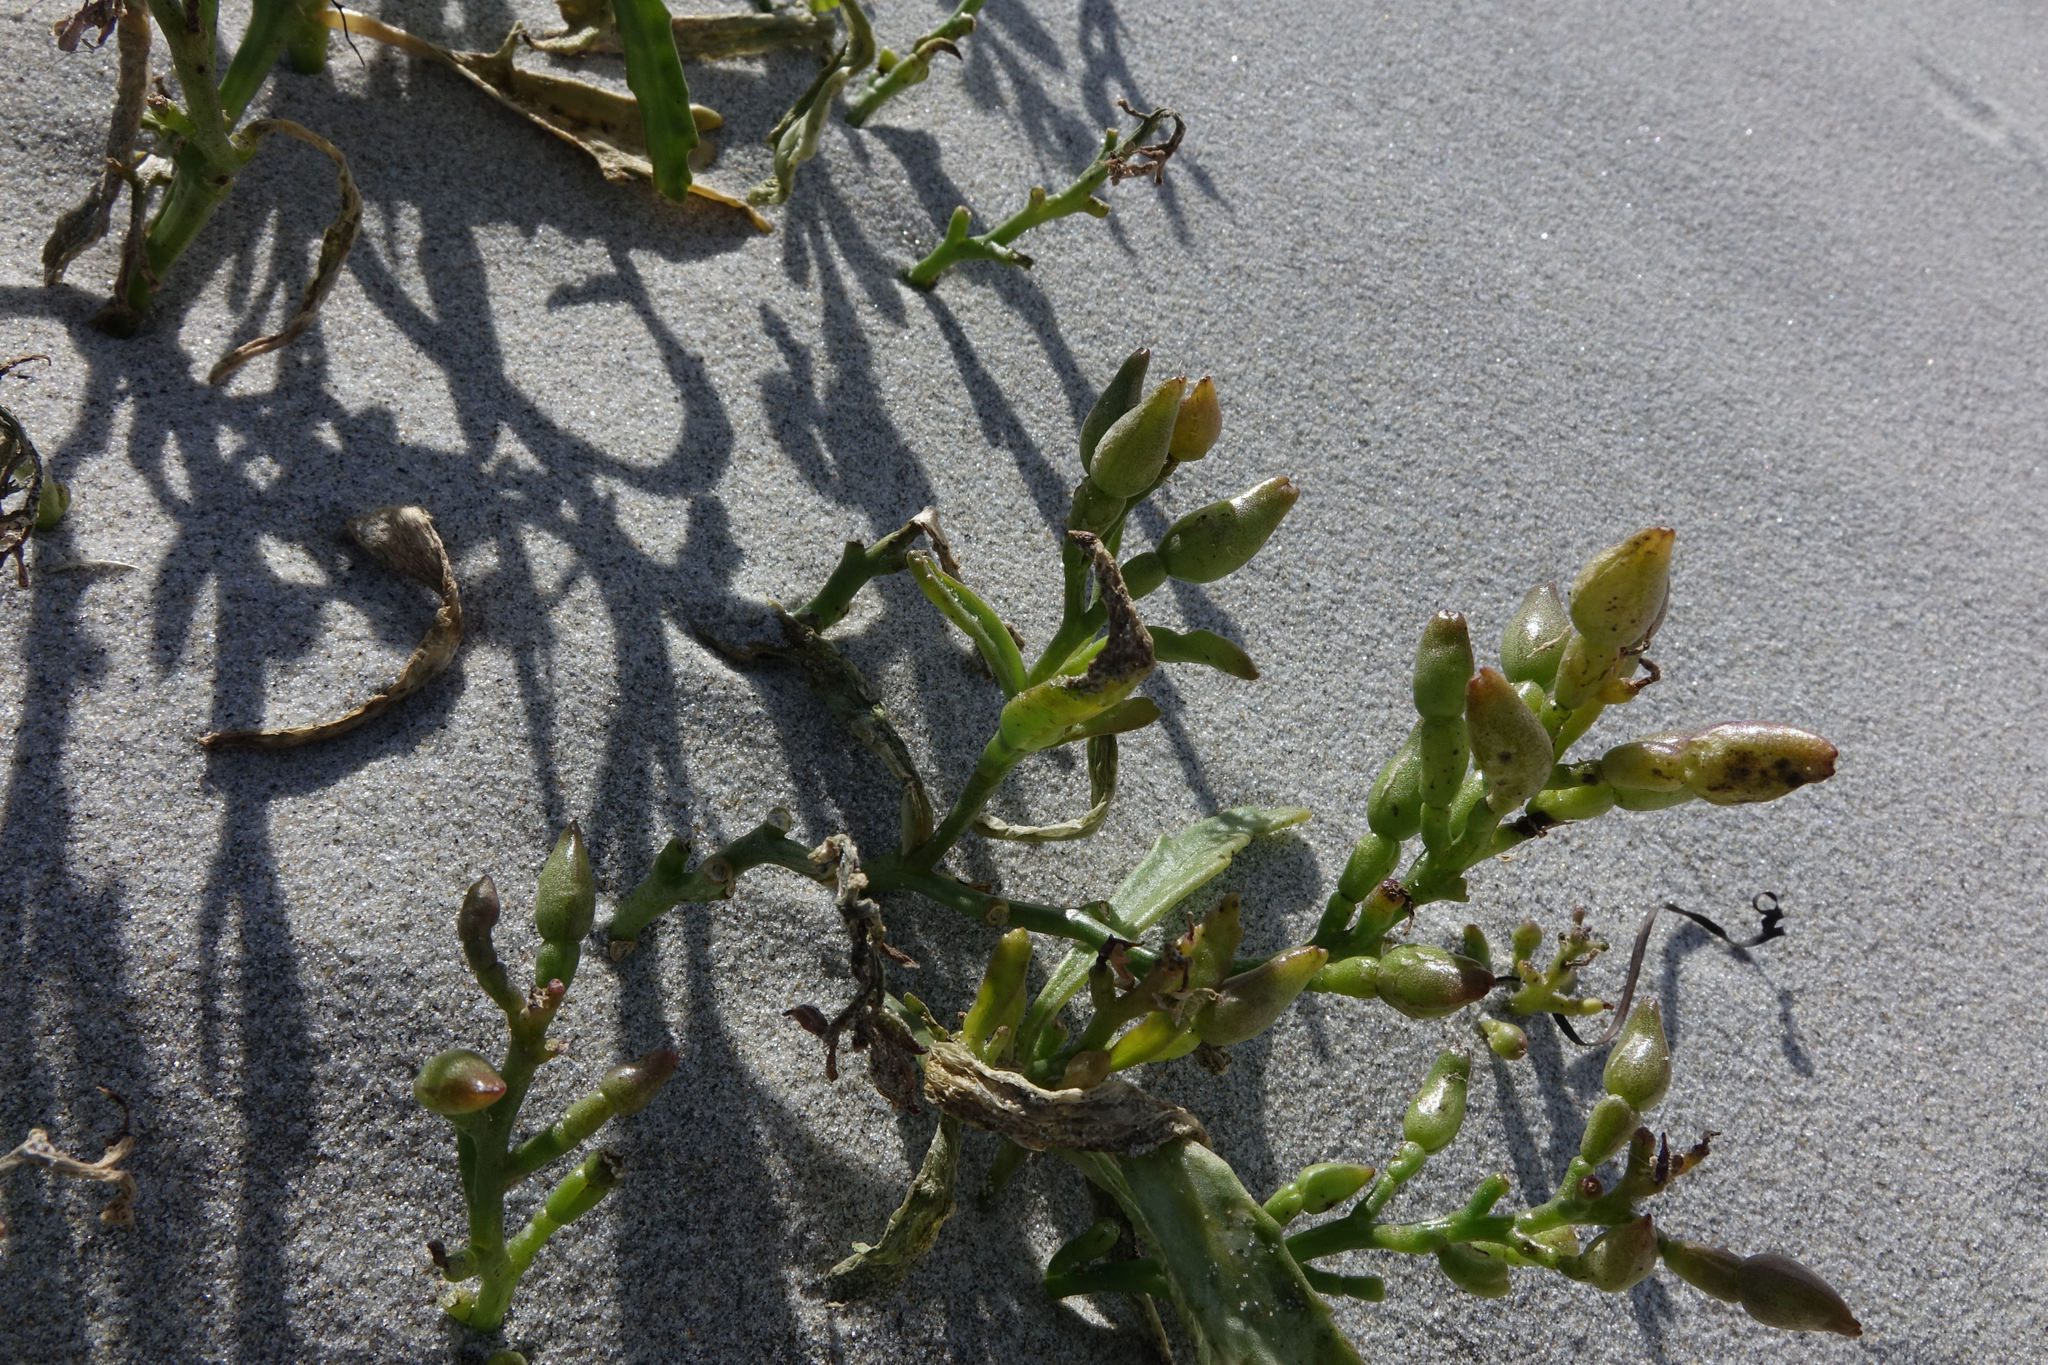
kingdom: Plantae
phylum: Tracheophyta
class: Magnoliopsida
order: Brassicales
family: Brassicaceae
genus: Cakile
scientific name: Cakile edentula
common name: American sea rocket
